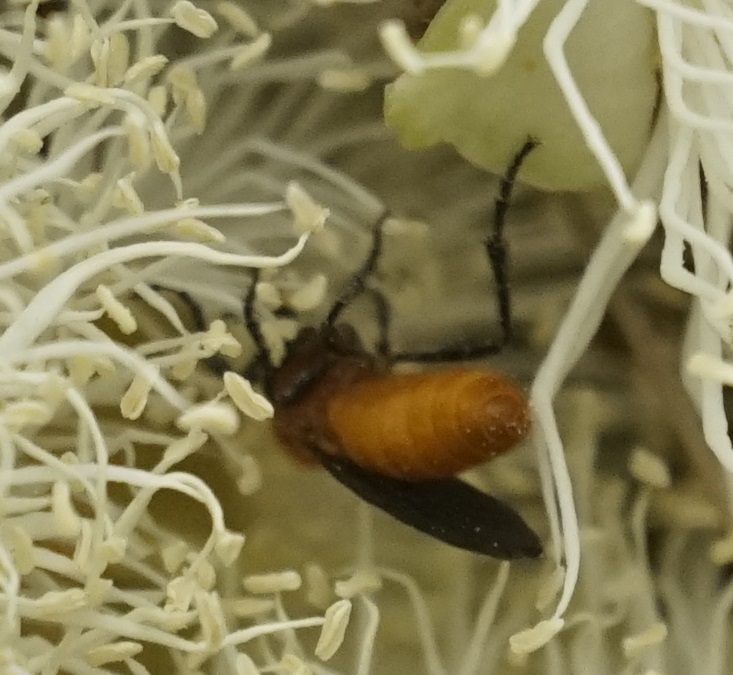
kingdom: Animalia
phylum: Arthropoda
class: Insecta
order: Diptera
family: Bibionidae
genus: Bibio
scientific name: Bibio imitator
